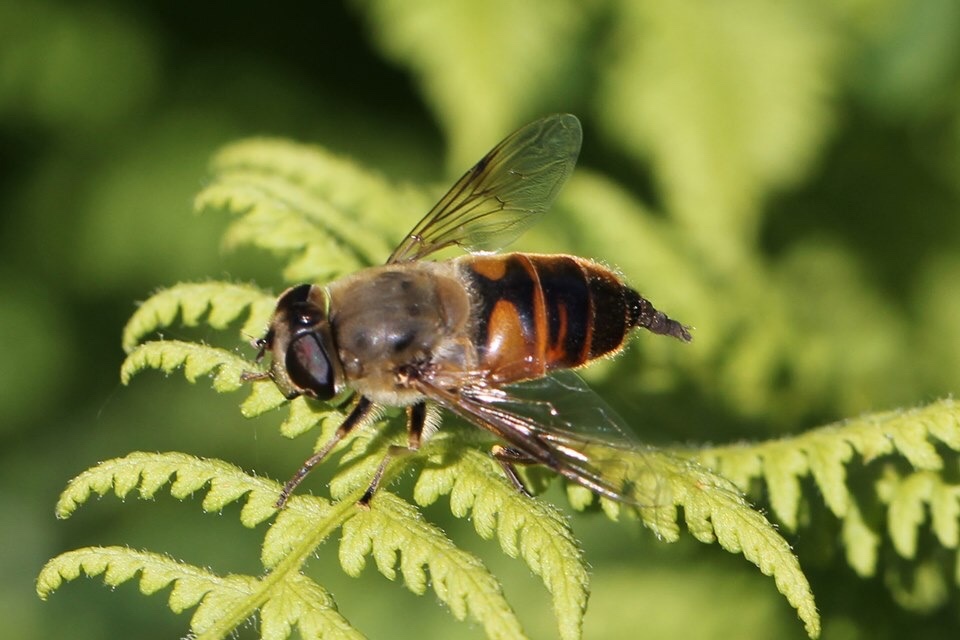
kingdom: Animalia
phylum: Arthropoda
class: Insecta
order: Diptera
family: Syrphidae
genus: Eristalis
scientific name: Eristalis tenax
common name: Drone fly
